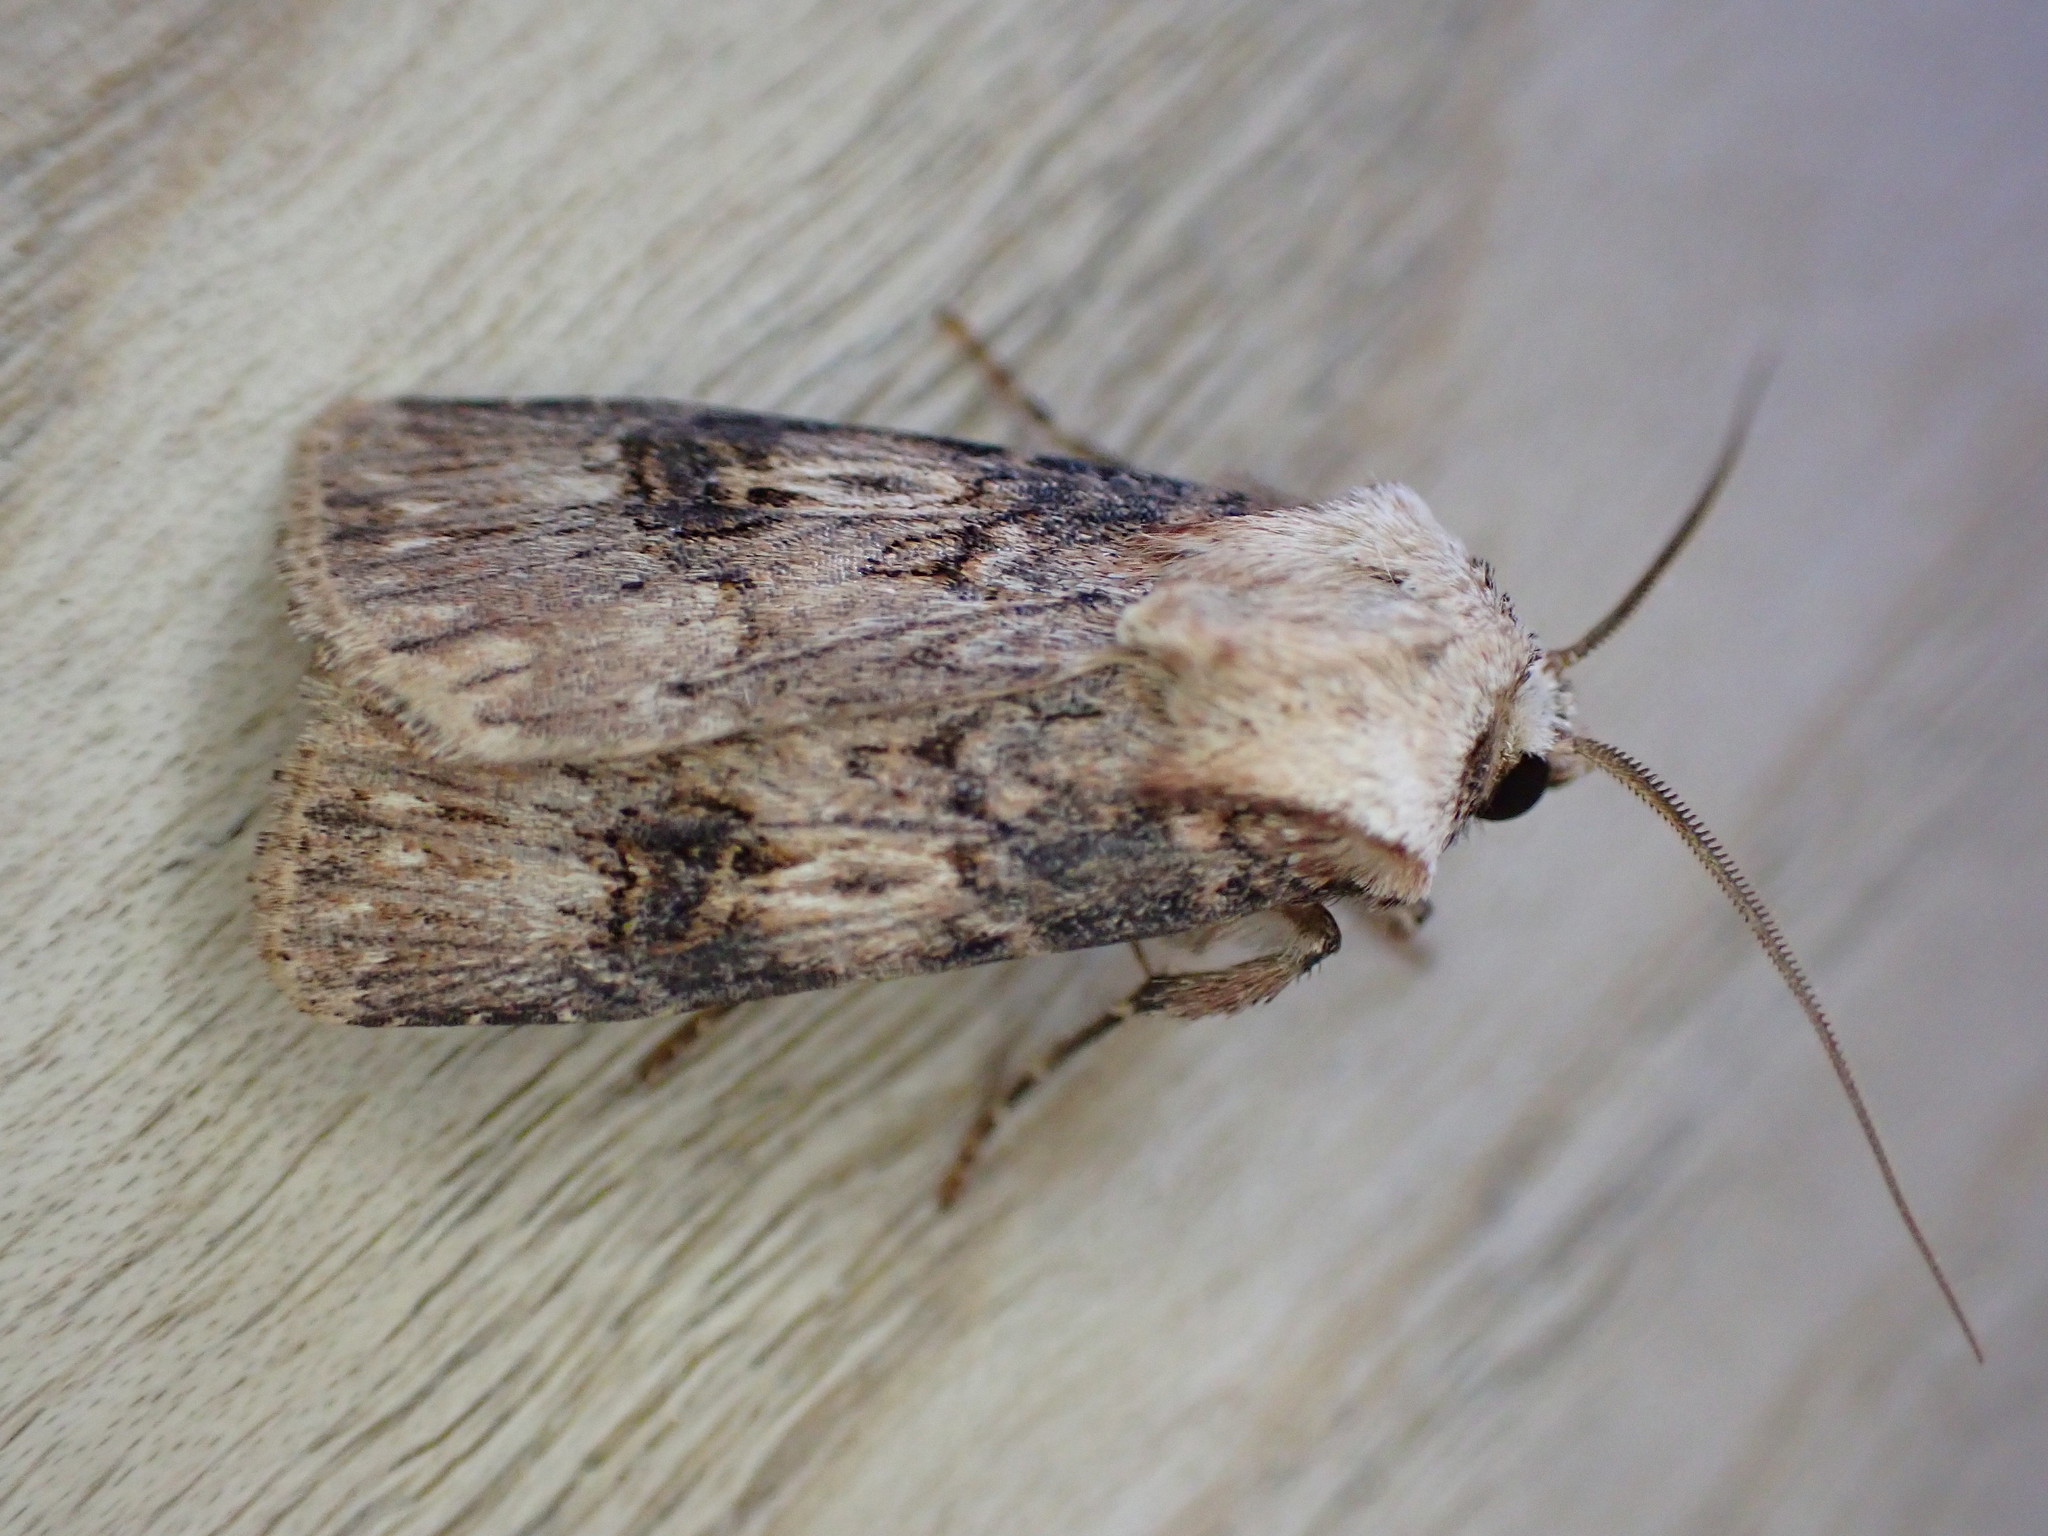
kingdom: Animalia
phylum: Arthropoda
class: Insecta
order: Lepidoptera
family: Noctuidae
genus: Agrotis
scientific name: Agrotis puta
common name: Shuttle-shaped dart
